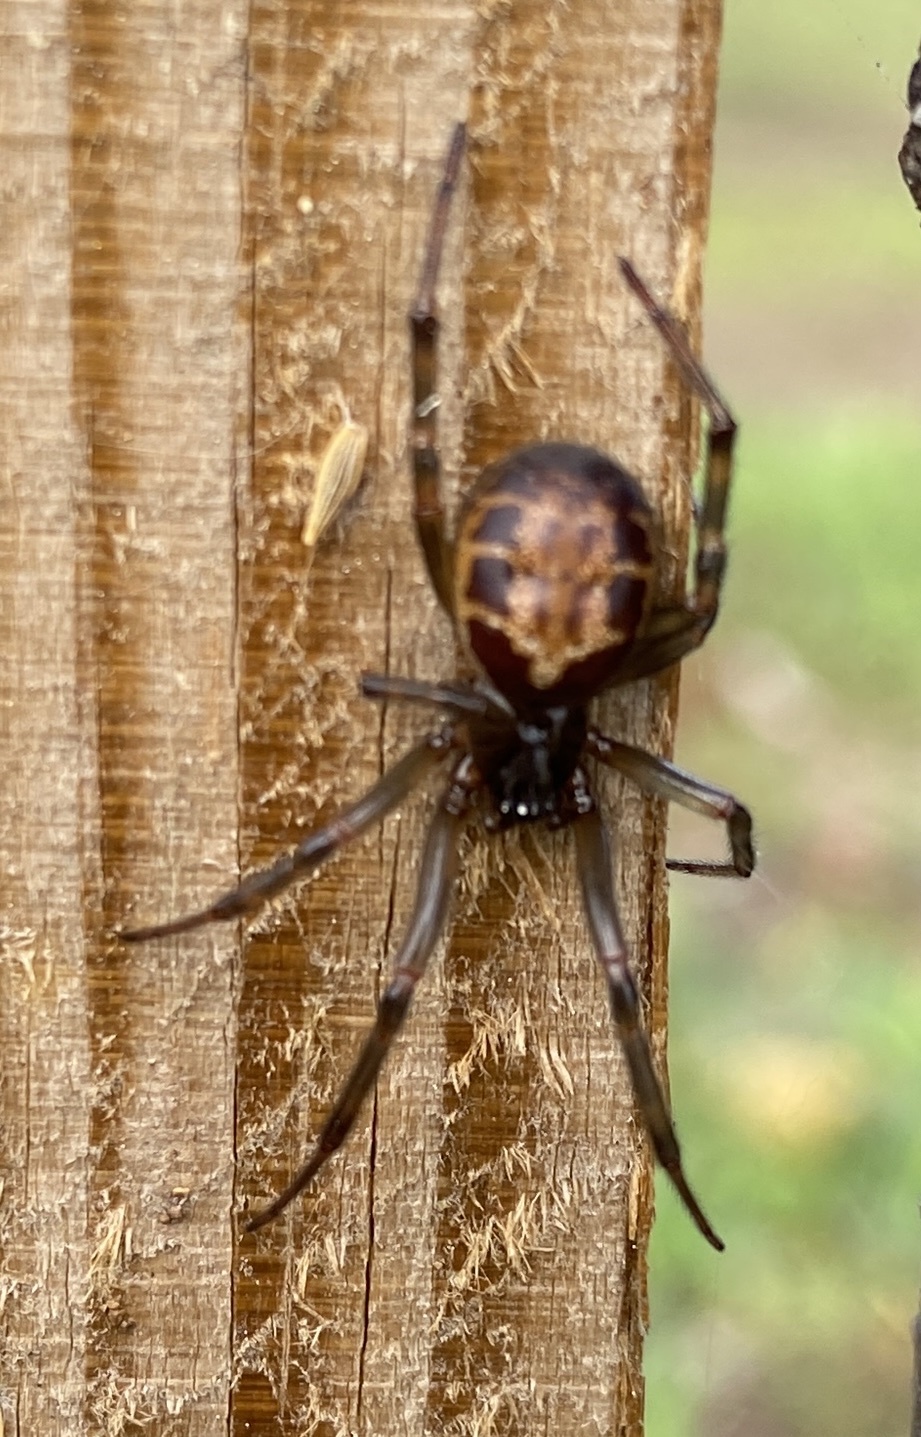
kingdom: Animalia
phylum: Arthropoda
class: Arachnida
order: Araneae
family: Theridiidae
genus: Steatoda
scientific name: Steatoda nobilis
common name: Cobweb weaver
